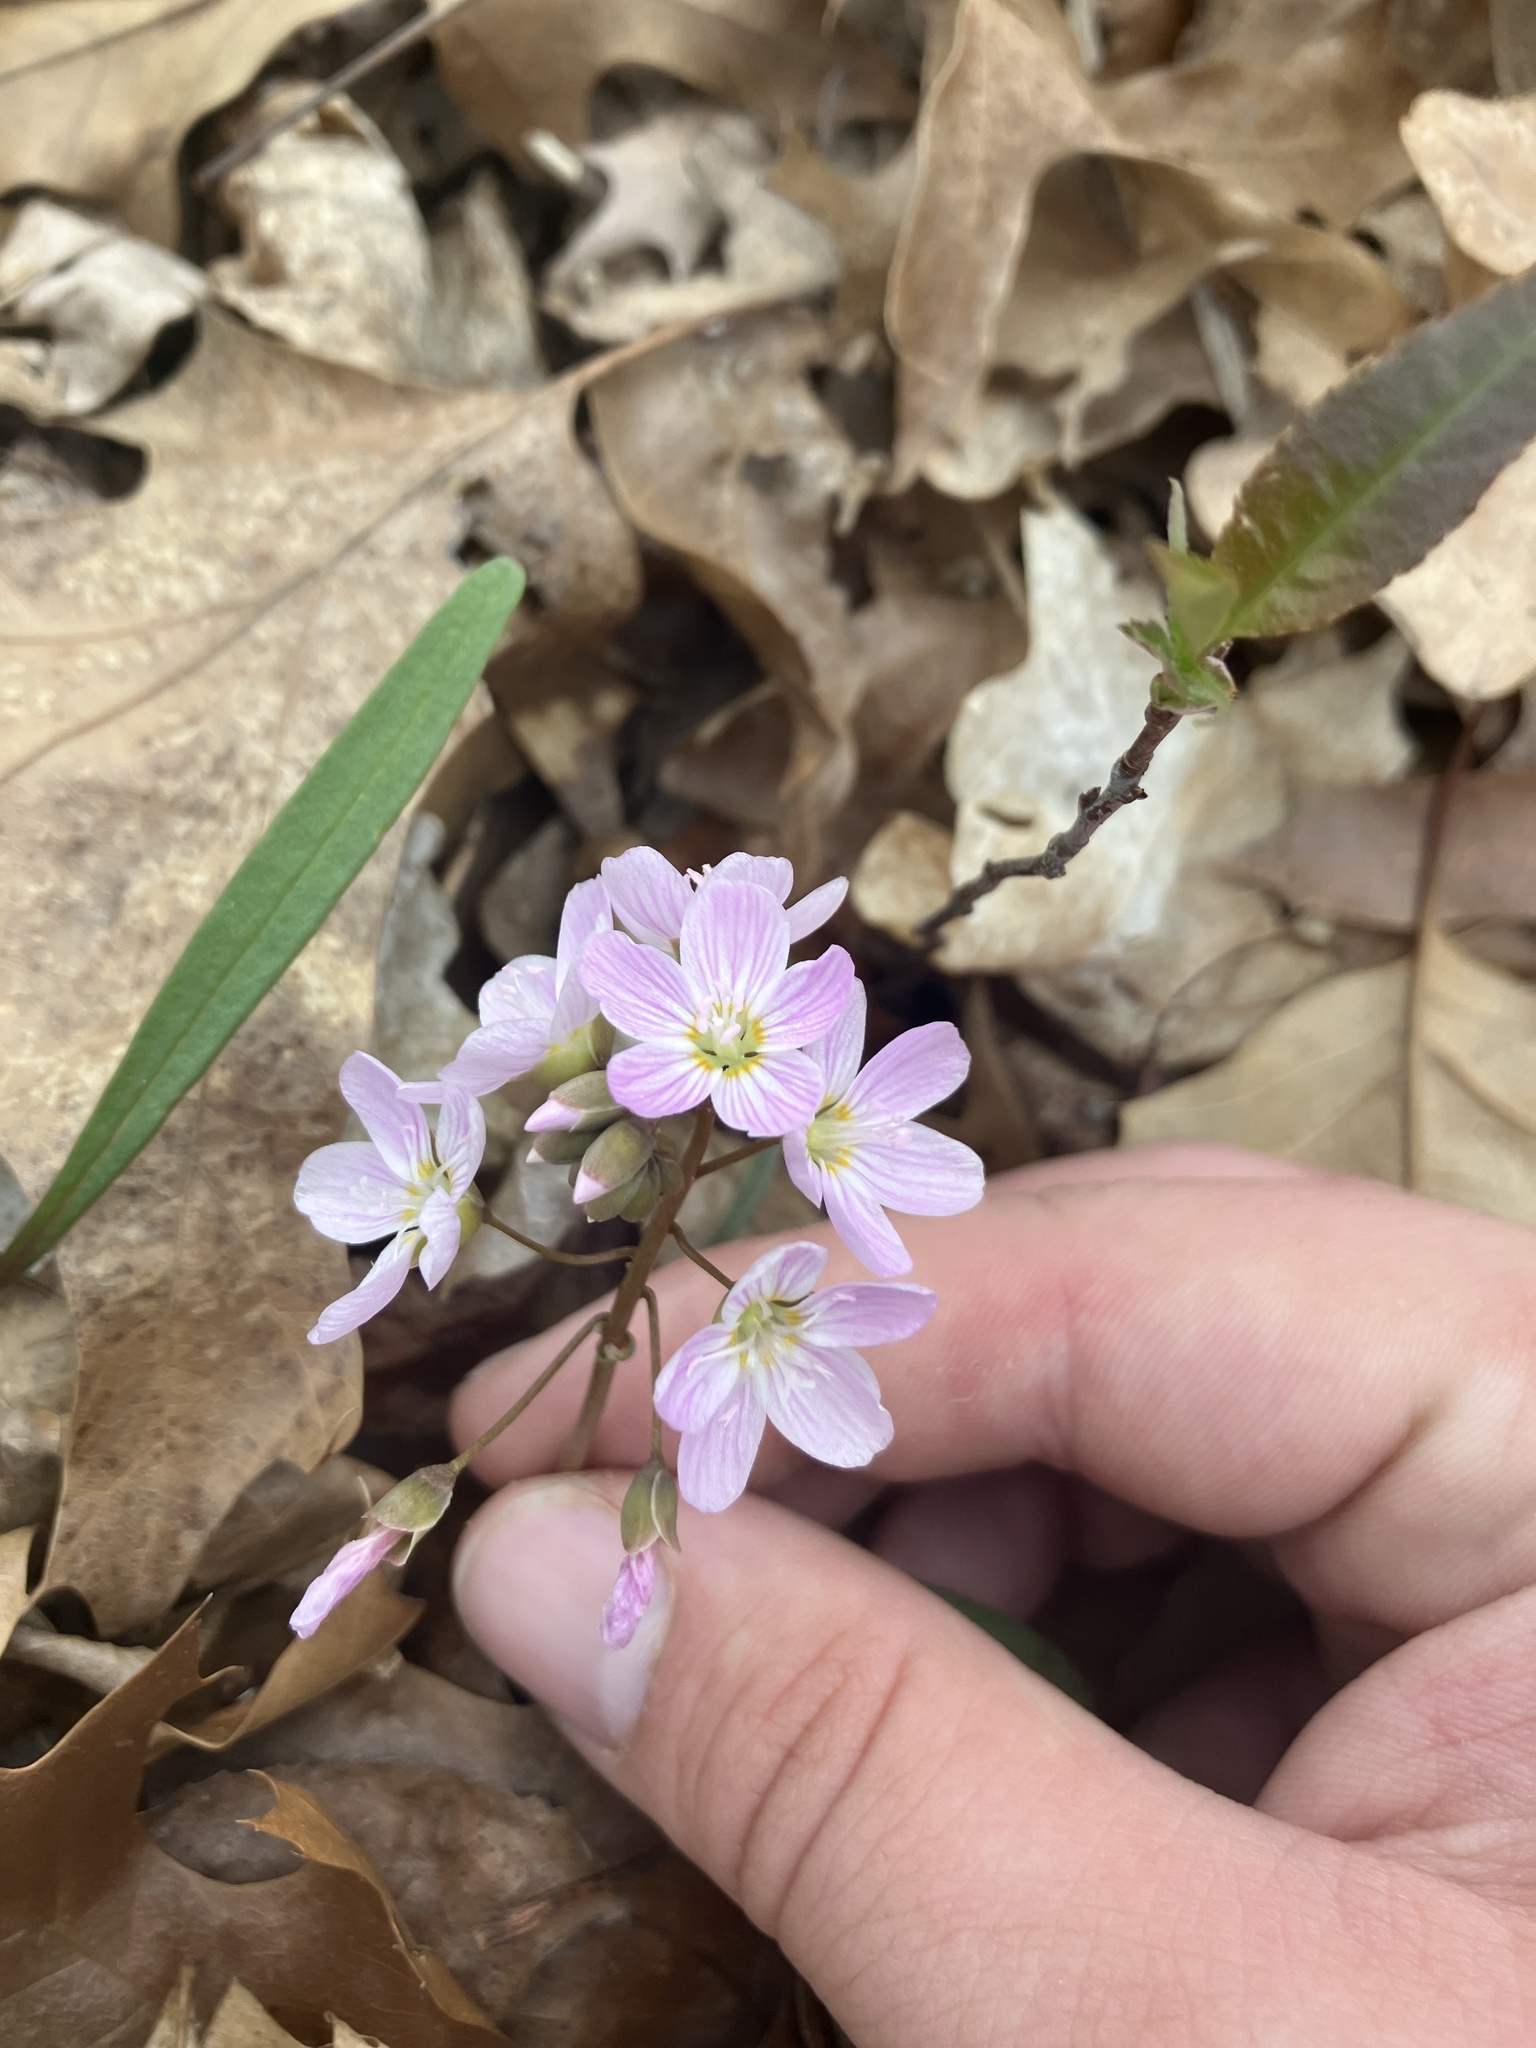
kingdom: Plantae
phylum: Tracheophyta
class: Magnoliopsida
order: Caryophyllales
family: Montiaceae
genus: Claytonia
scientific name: Claytonia virginica
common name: Virginia springbeauty
